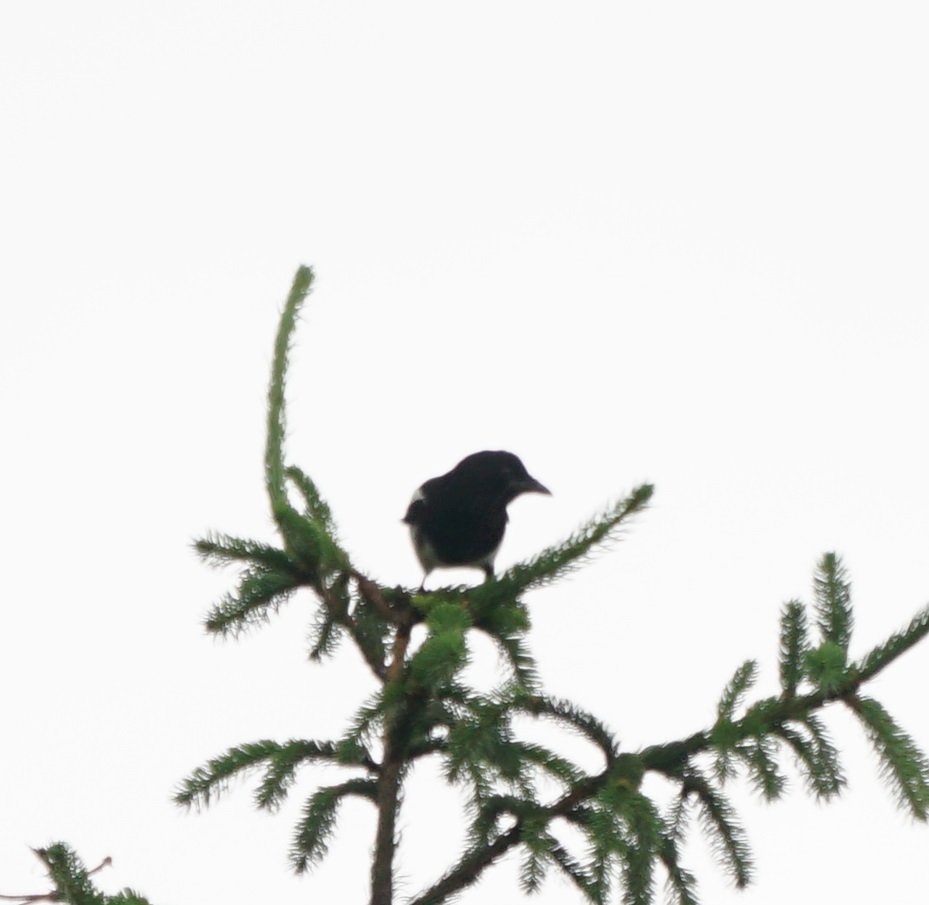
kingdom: Animalia
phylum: Chordata
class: Aves
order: Passeriformes
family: Corvidae
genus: Pica
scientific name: Pica pica
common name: Eurasian magpie
